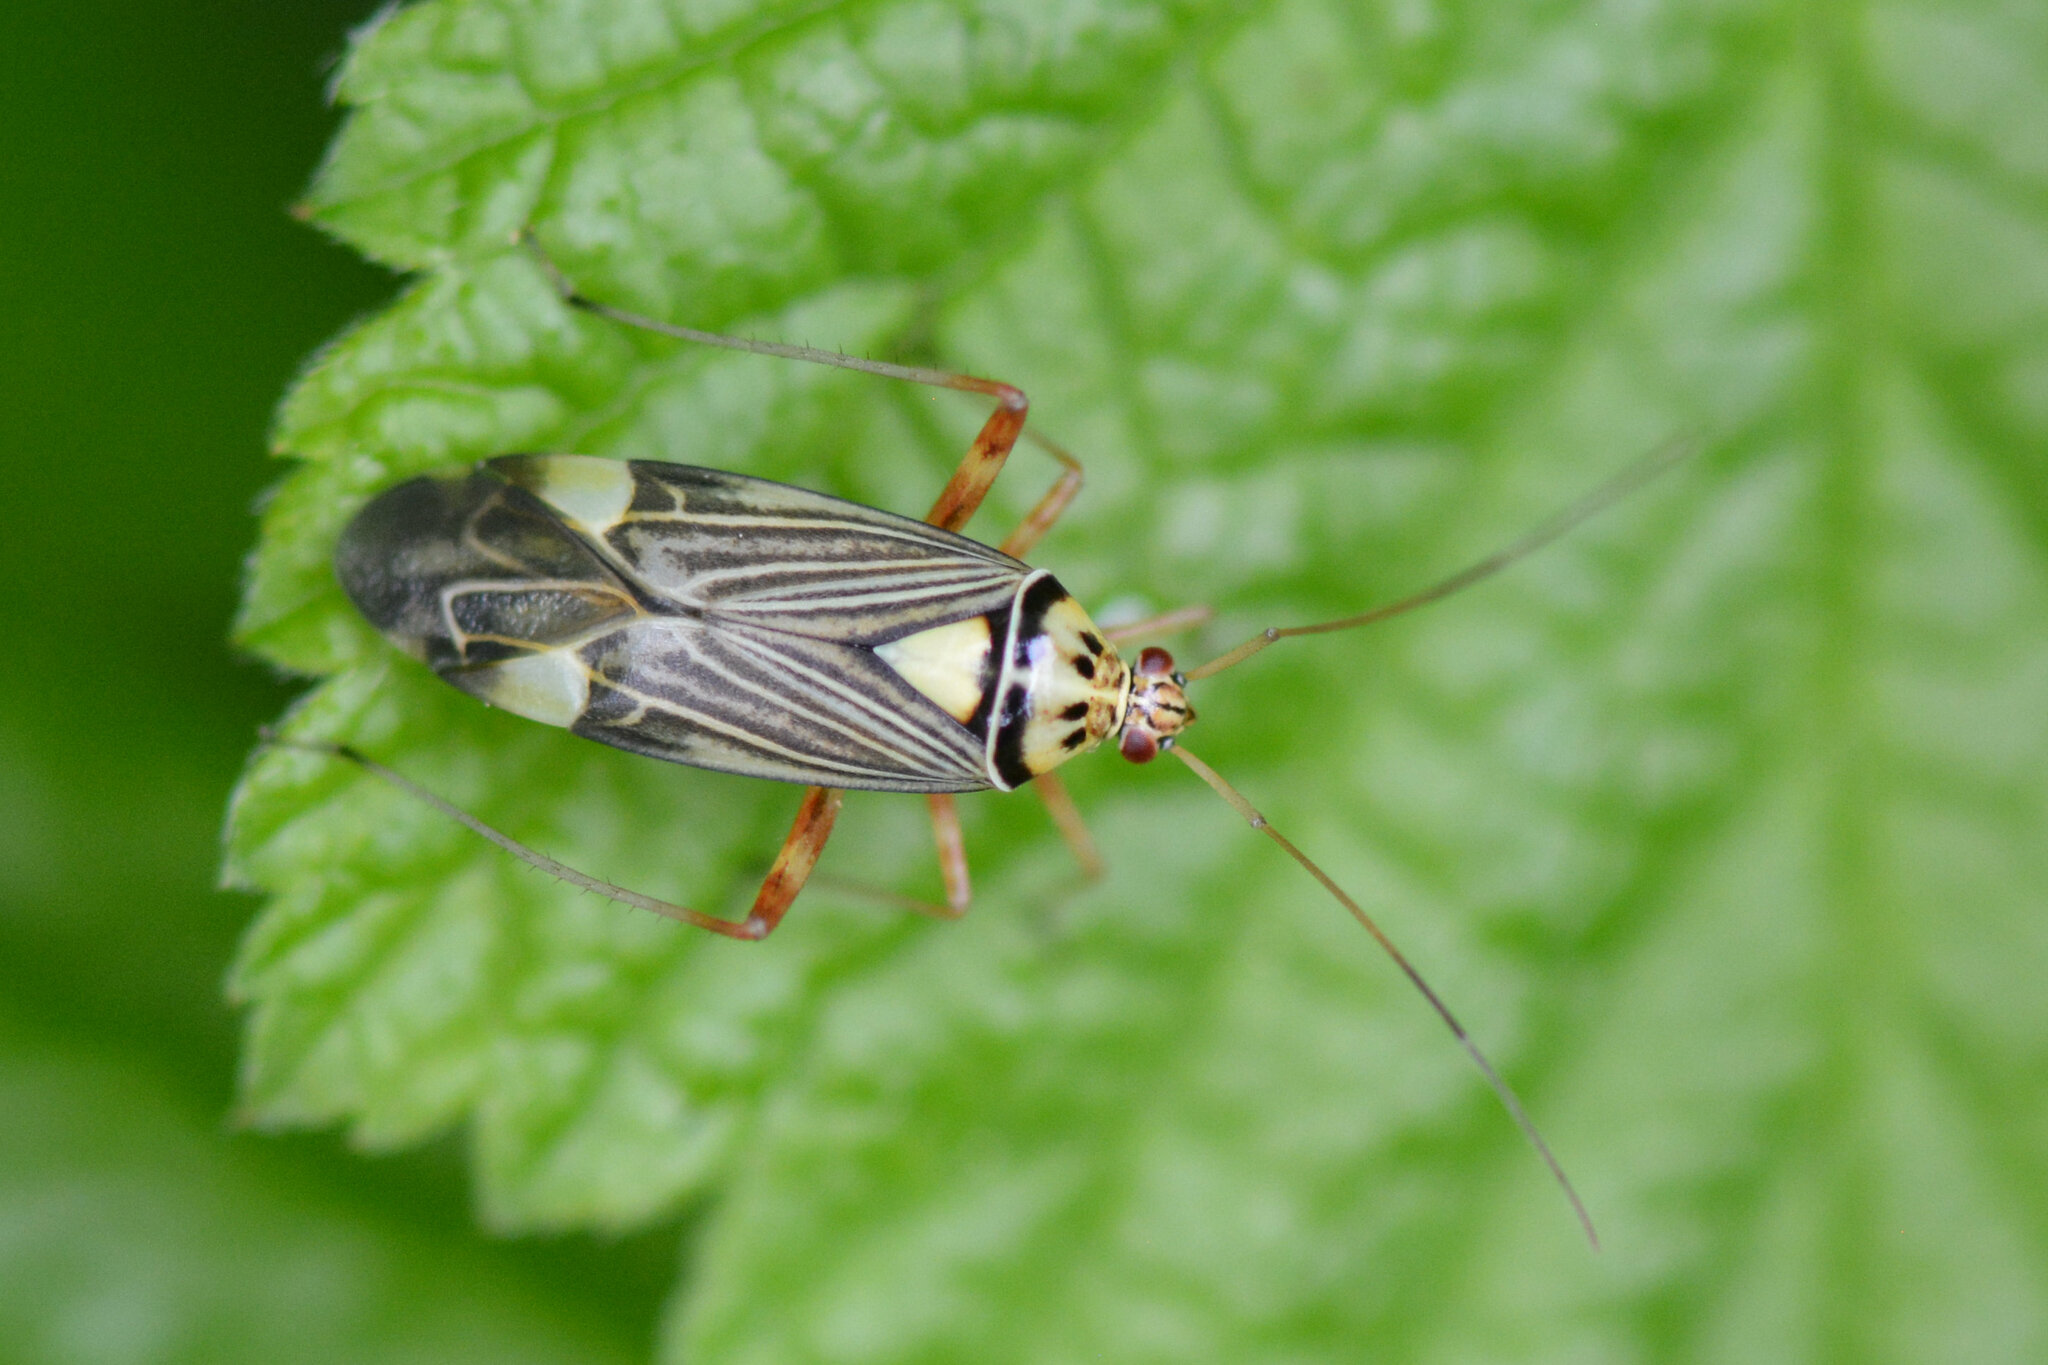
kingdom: Animalia
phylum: Arthropoda
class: Insecta
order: Hemiptera
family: Miridae
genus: Rhabdomiris
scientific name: Rhabdomiris striatellus
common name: Plant bug
